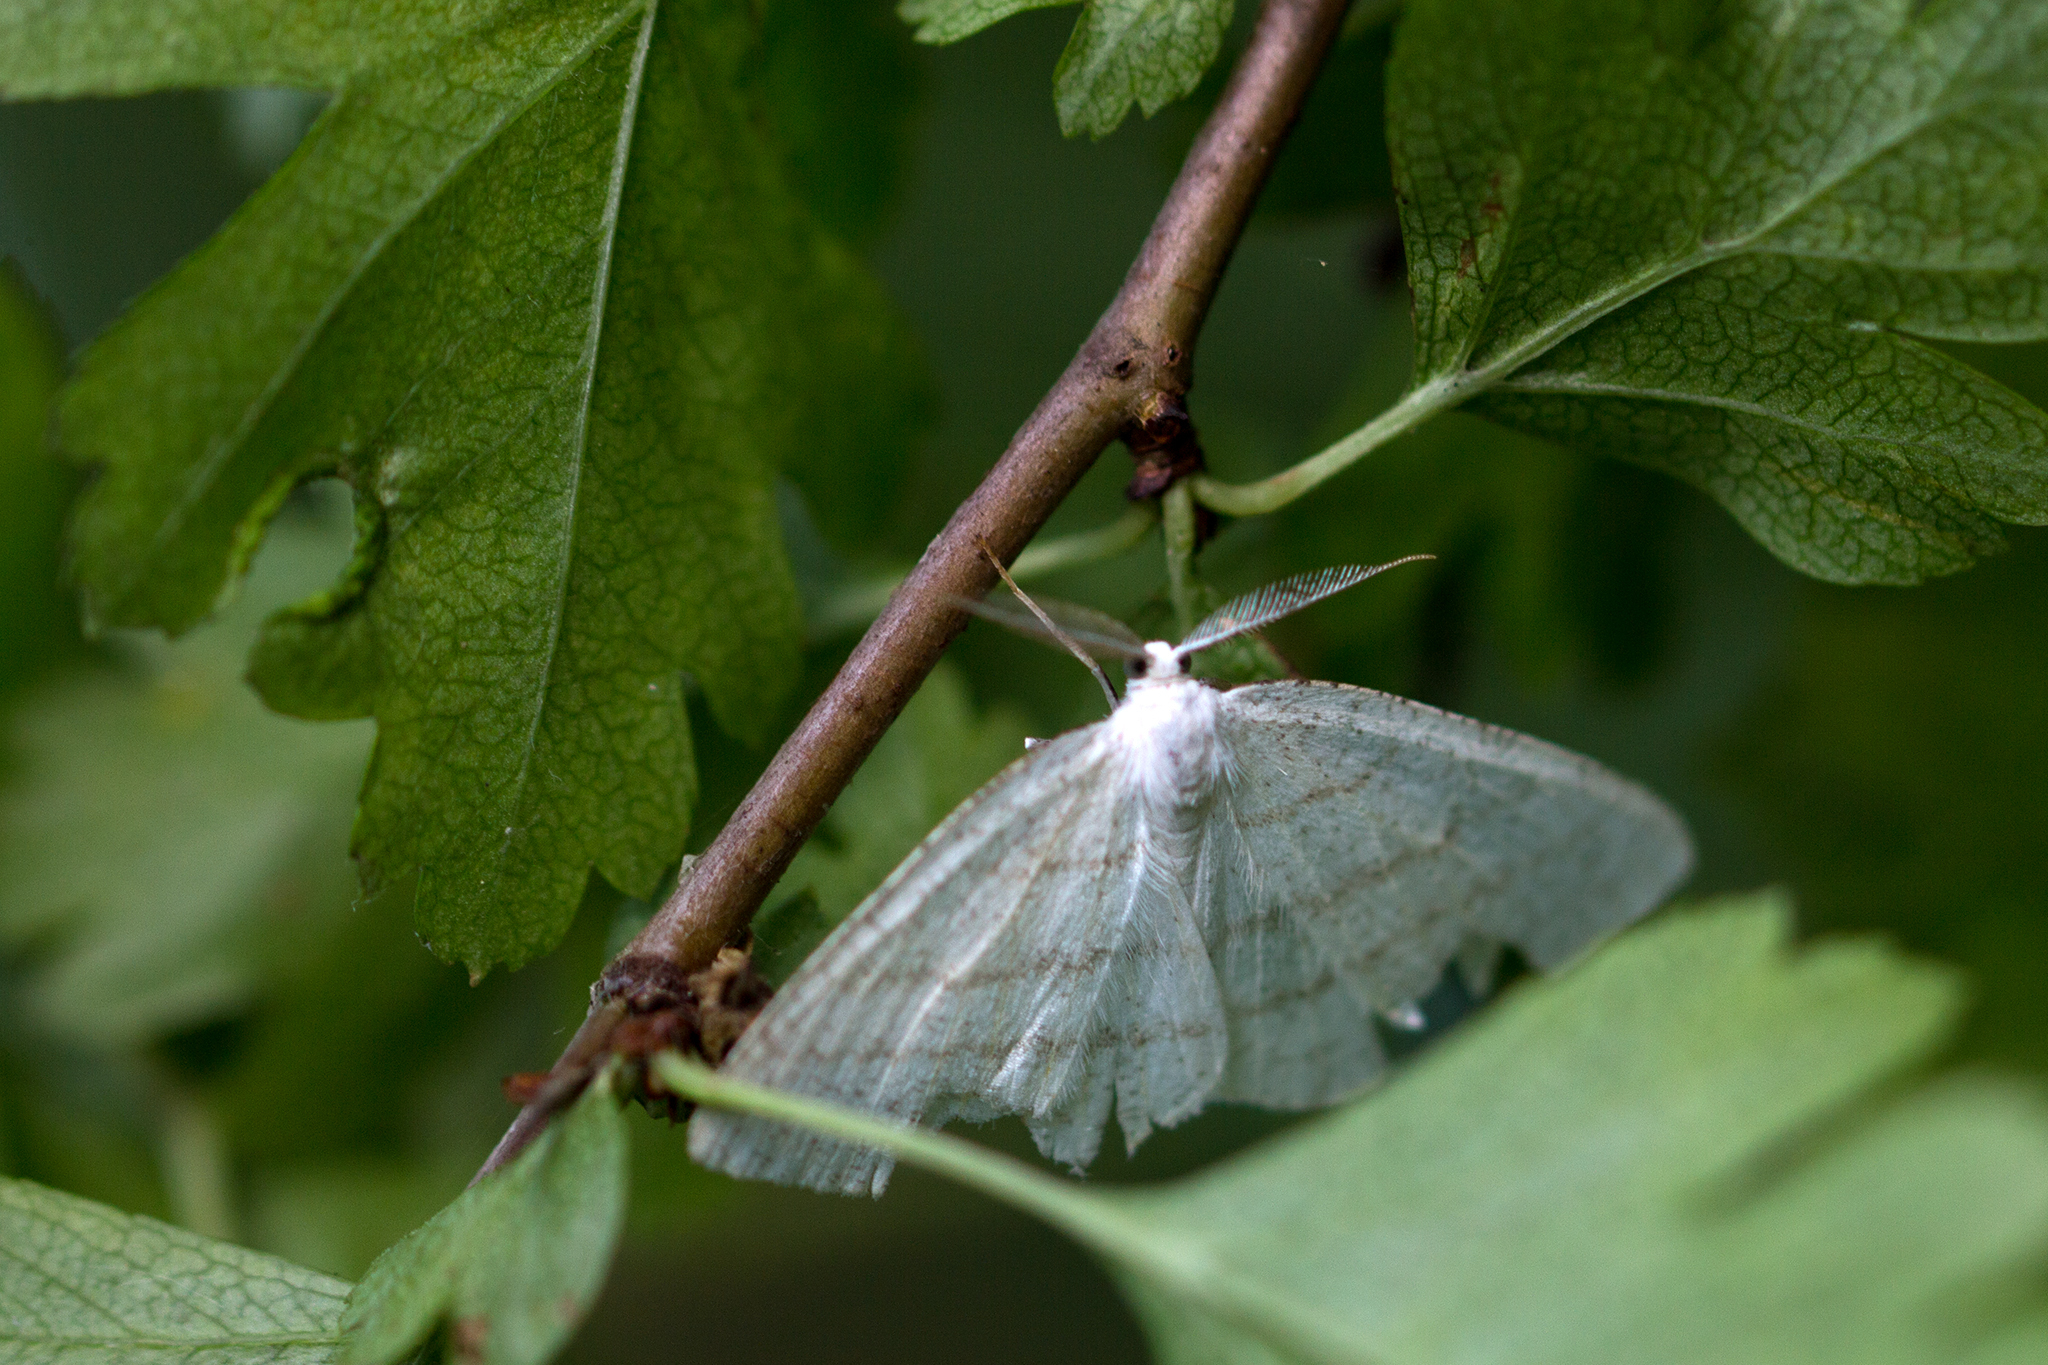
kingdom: Animalia
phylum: Arthropoda
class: Insecta
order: Lepidoptera
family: Geometridae
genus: Cabera
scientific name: Cabera pusaria
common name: Common white wave
